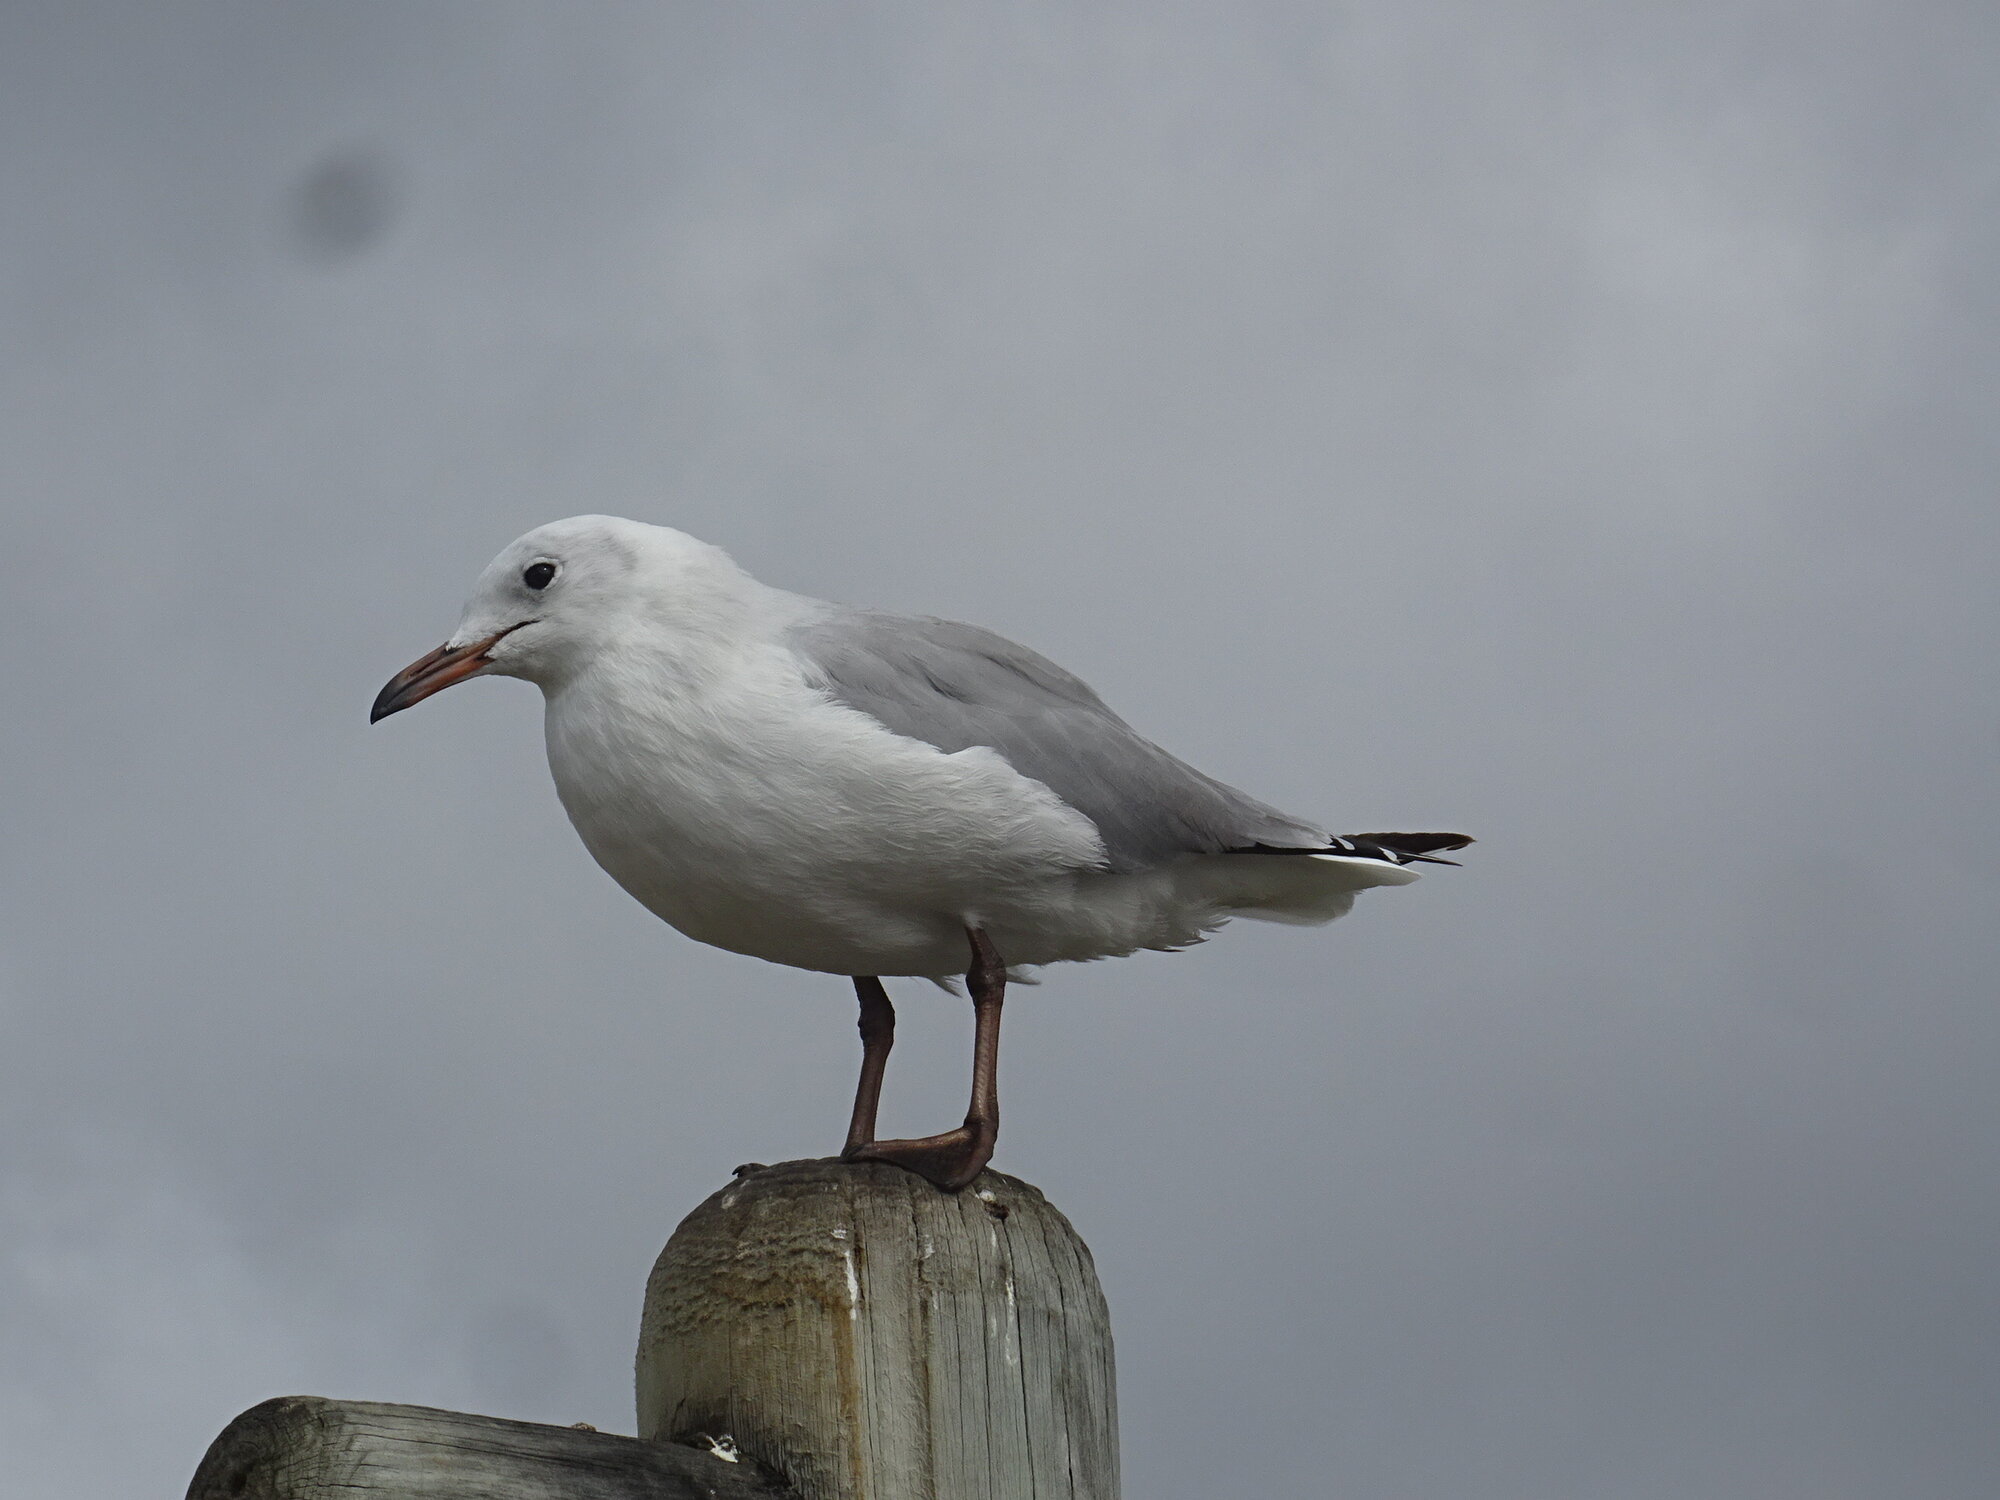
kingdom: Animalia
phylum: Chordata
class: Aves
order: Charadriiformes
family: Laridae
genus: Chroicocephalus
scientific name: Chroicocephalus hartlaubii
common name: Hartlaub's gull
